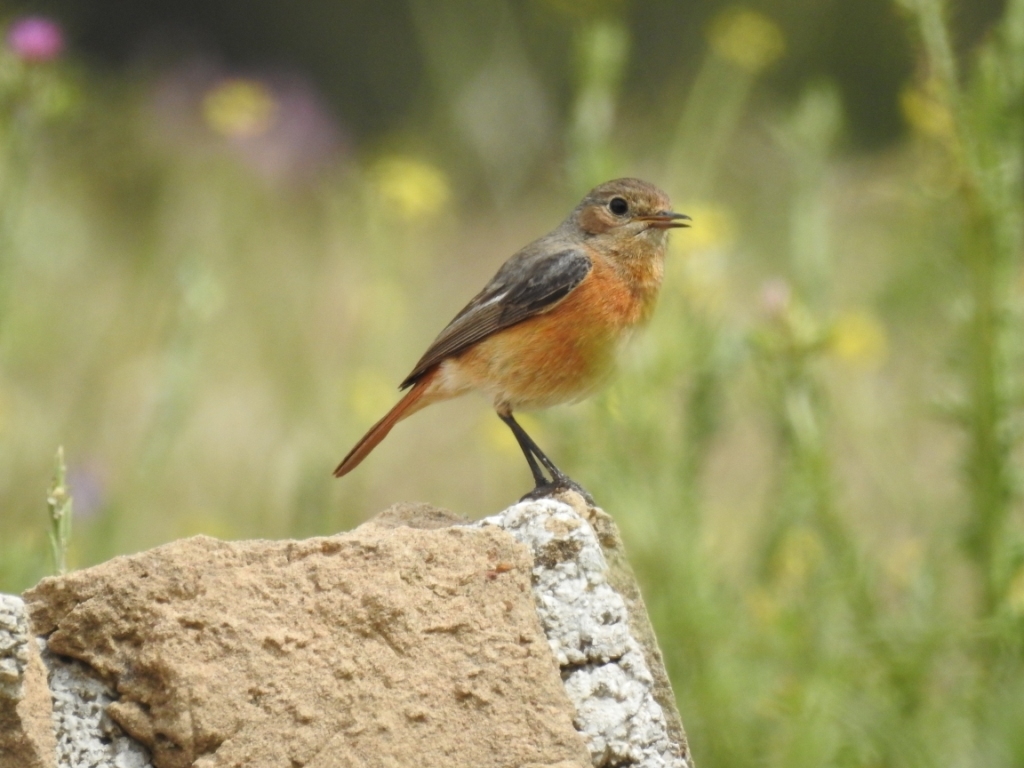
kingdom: Animalia
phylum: Chordata
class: Aves
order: Passeriformes
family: Muscicapidae
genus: Phoenicurus
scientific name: Phoenicurus moussieri
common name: Moussier's redstart
